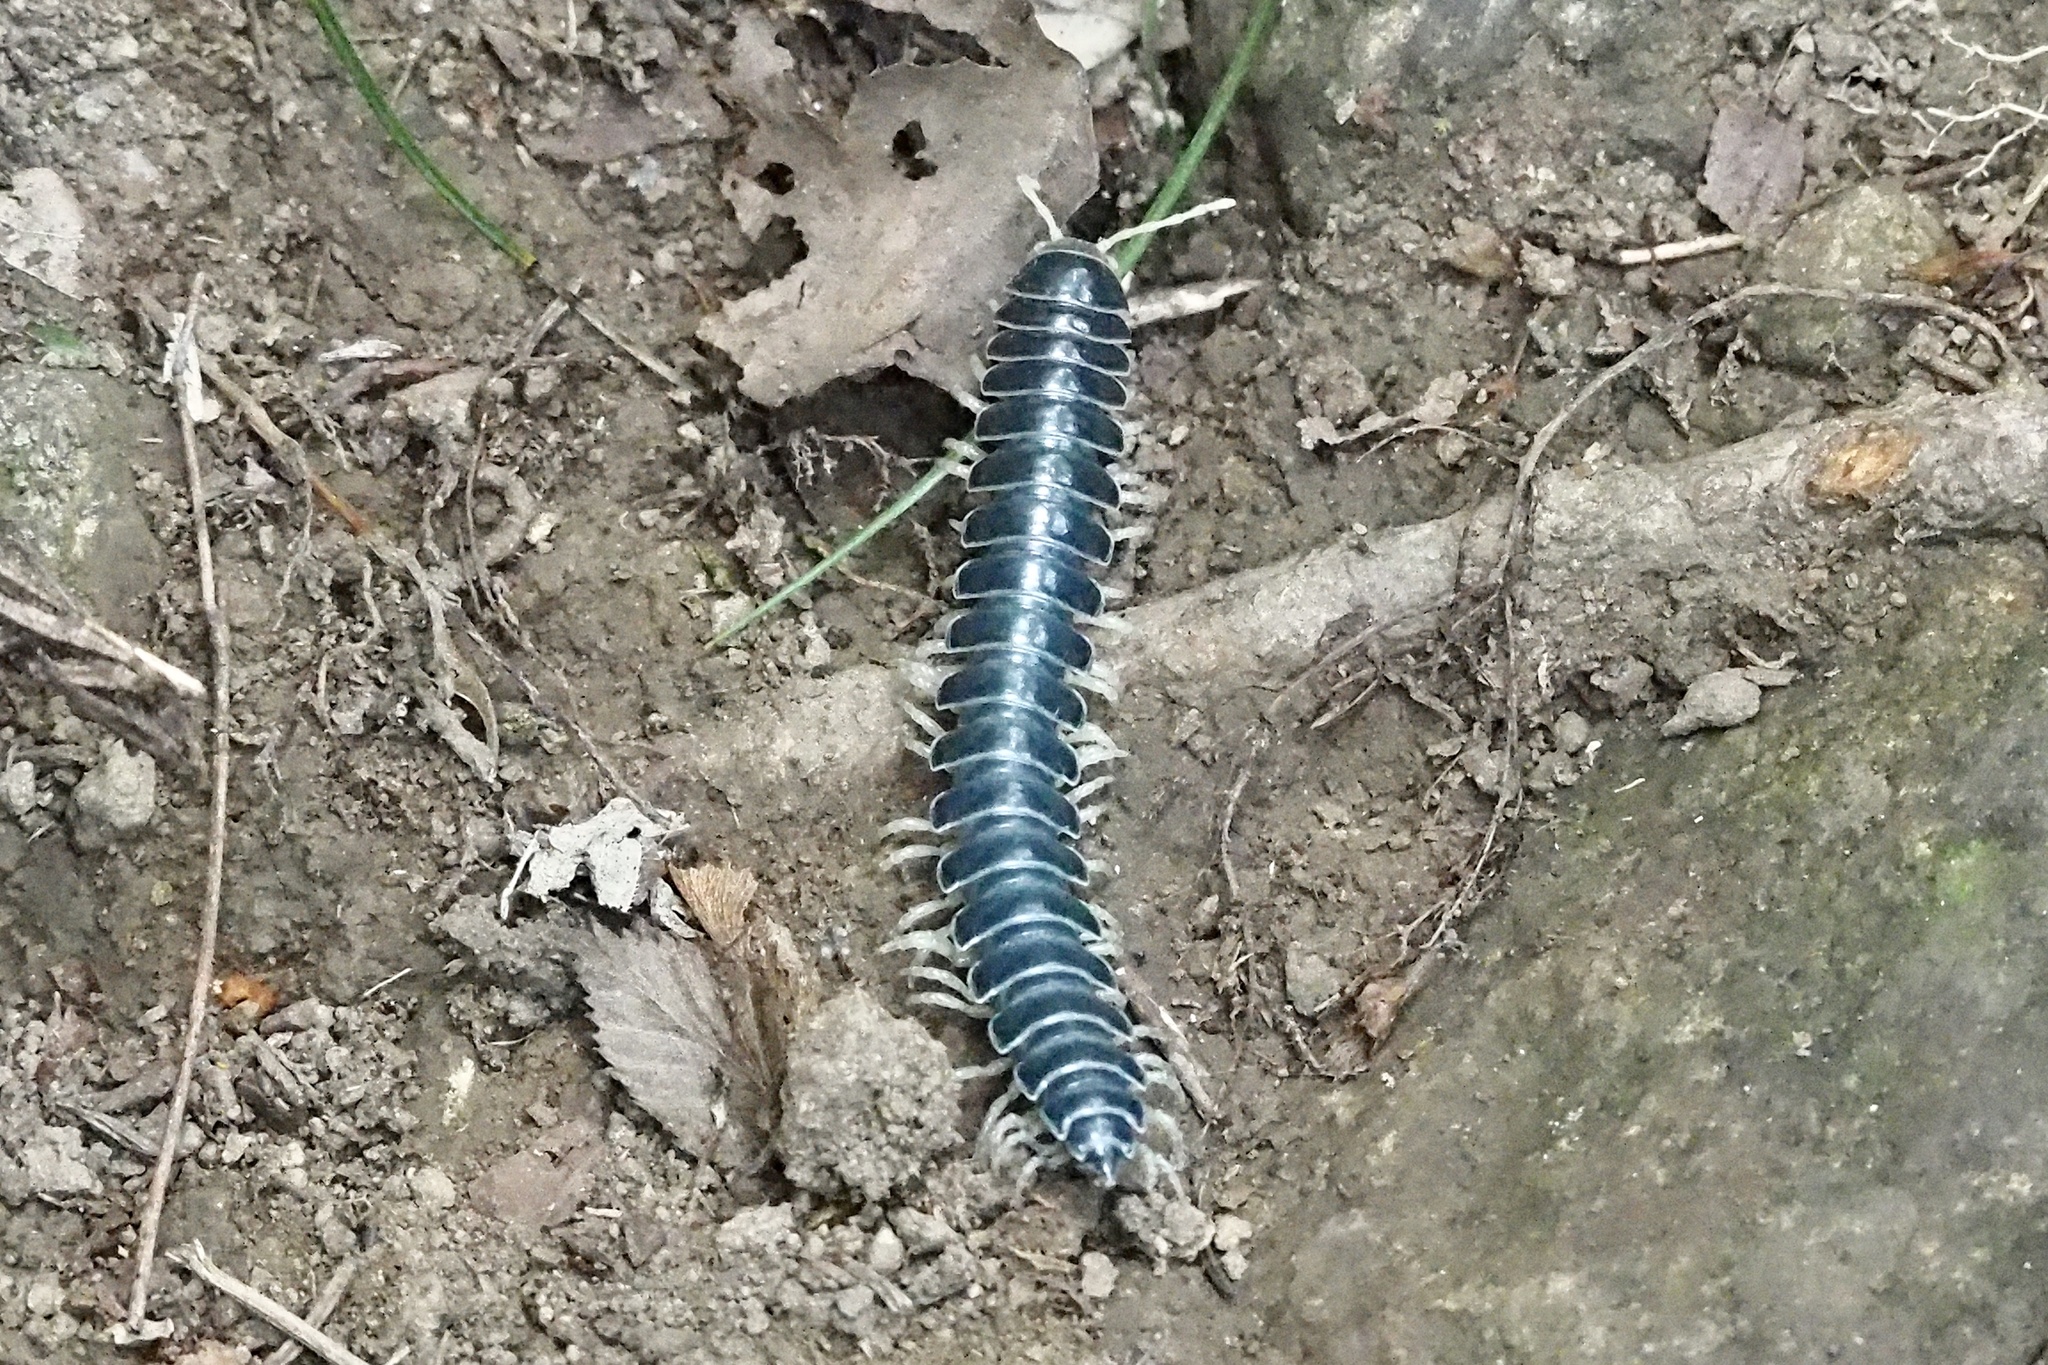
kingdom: Animalia
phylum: Arthropoda
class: Diplopoda
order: Polydesmida
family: Xystodesmidae
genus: Parafontaria
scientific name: Parafontaria tonominea
